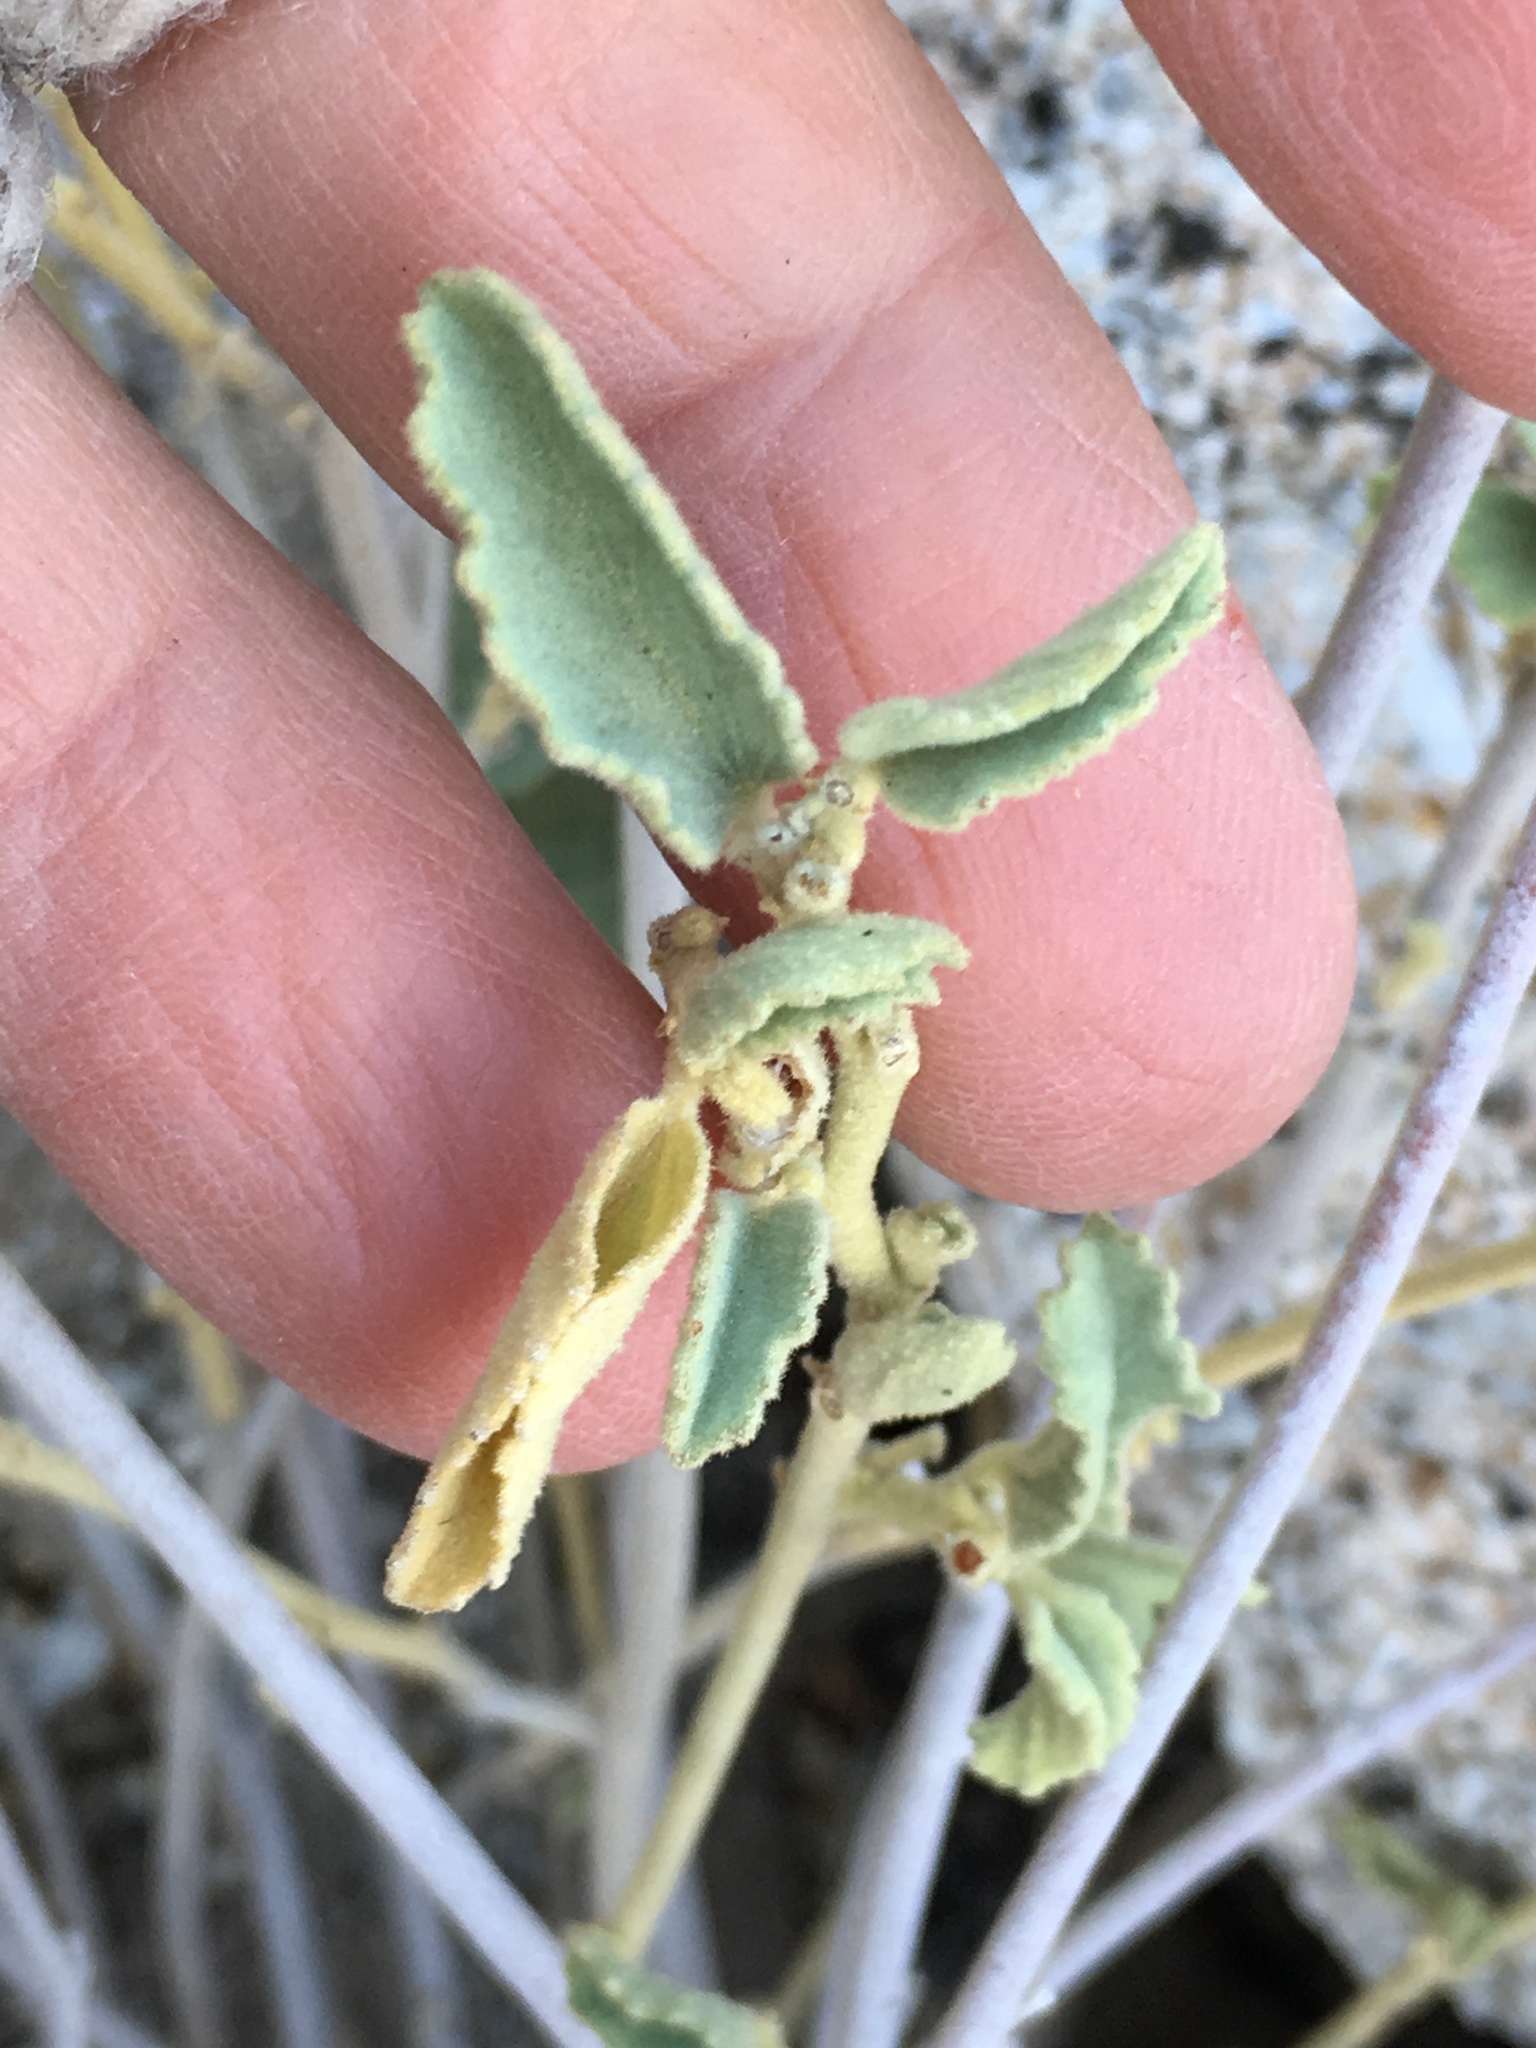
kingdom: Plantae
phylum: Tracheophyta
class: Magnoliopsida
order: Malvales
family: Malvaceae
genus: Hibiscus
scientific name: Hibiscus denudatus
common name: Paleface
